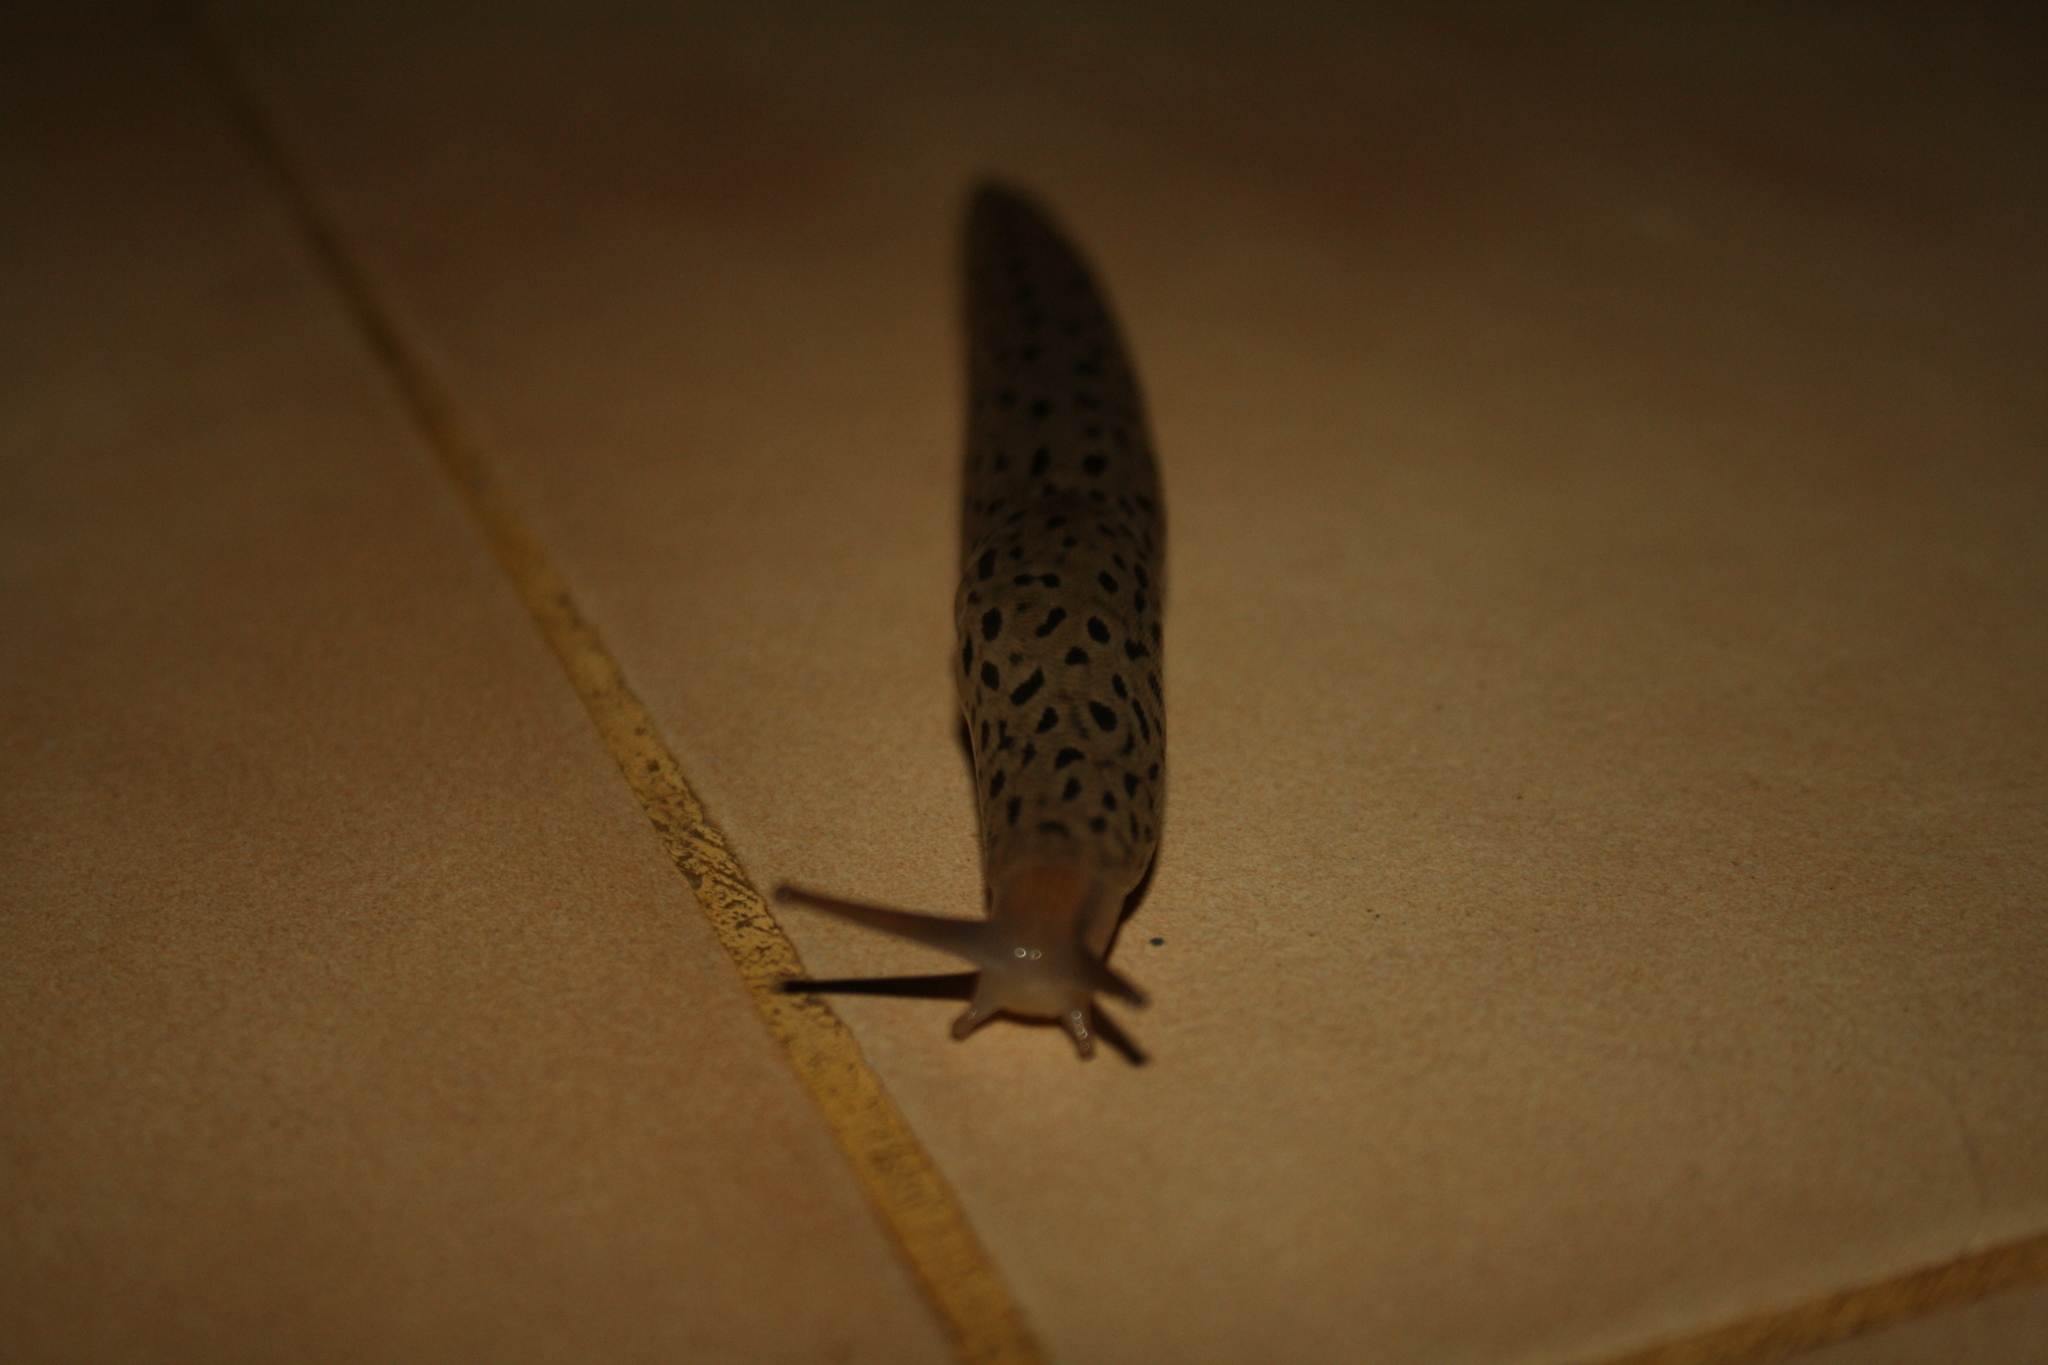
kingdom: Animalia
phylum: Mollusca
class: Gastropoda
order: Stylommatophora
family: Limacidae
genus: Limax
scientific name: Limax conemenosi
